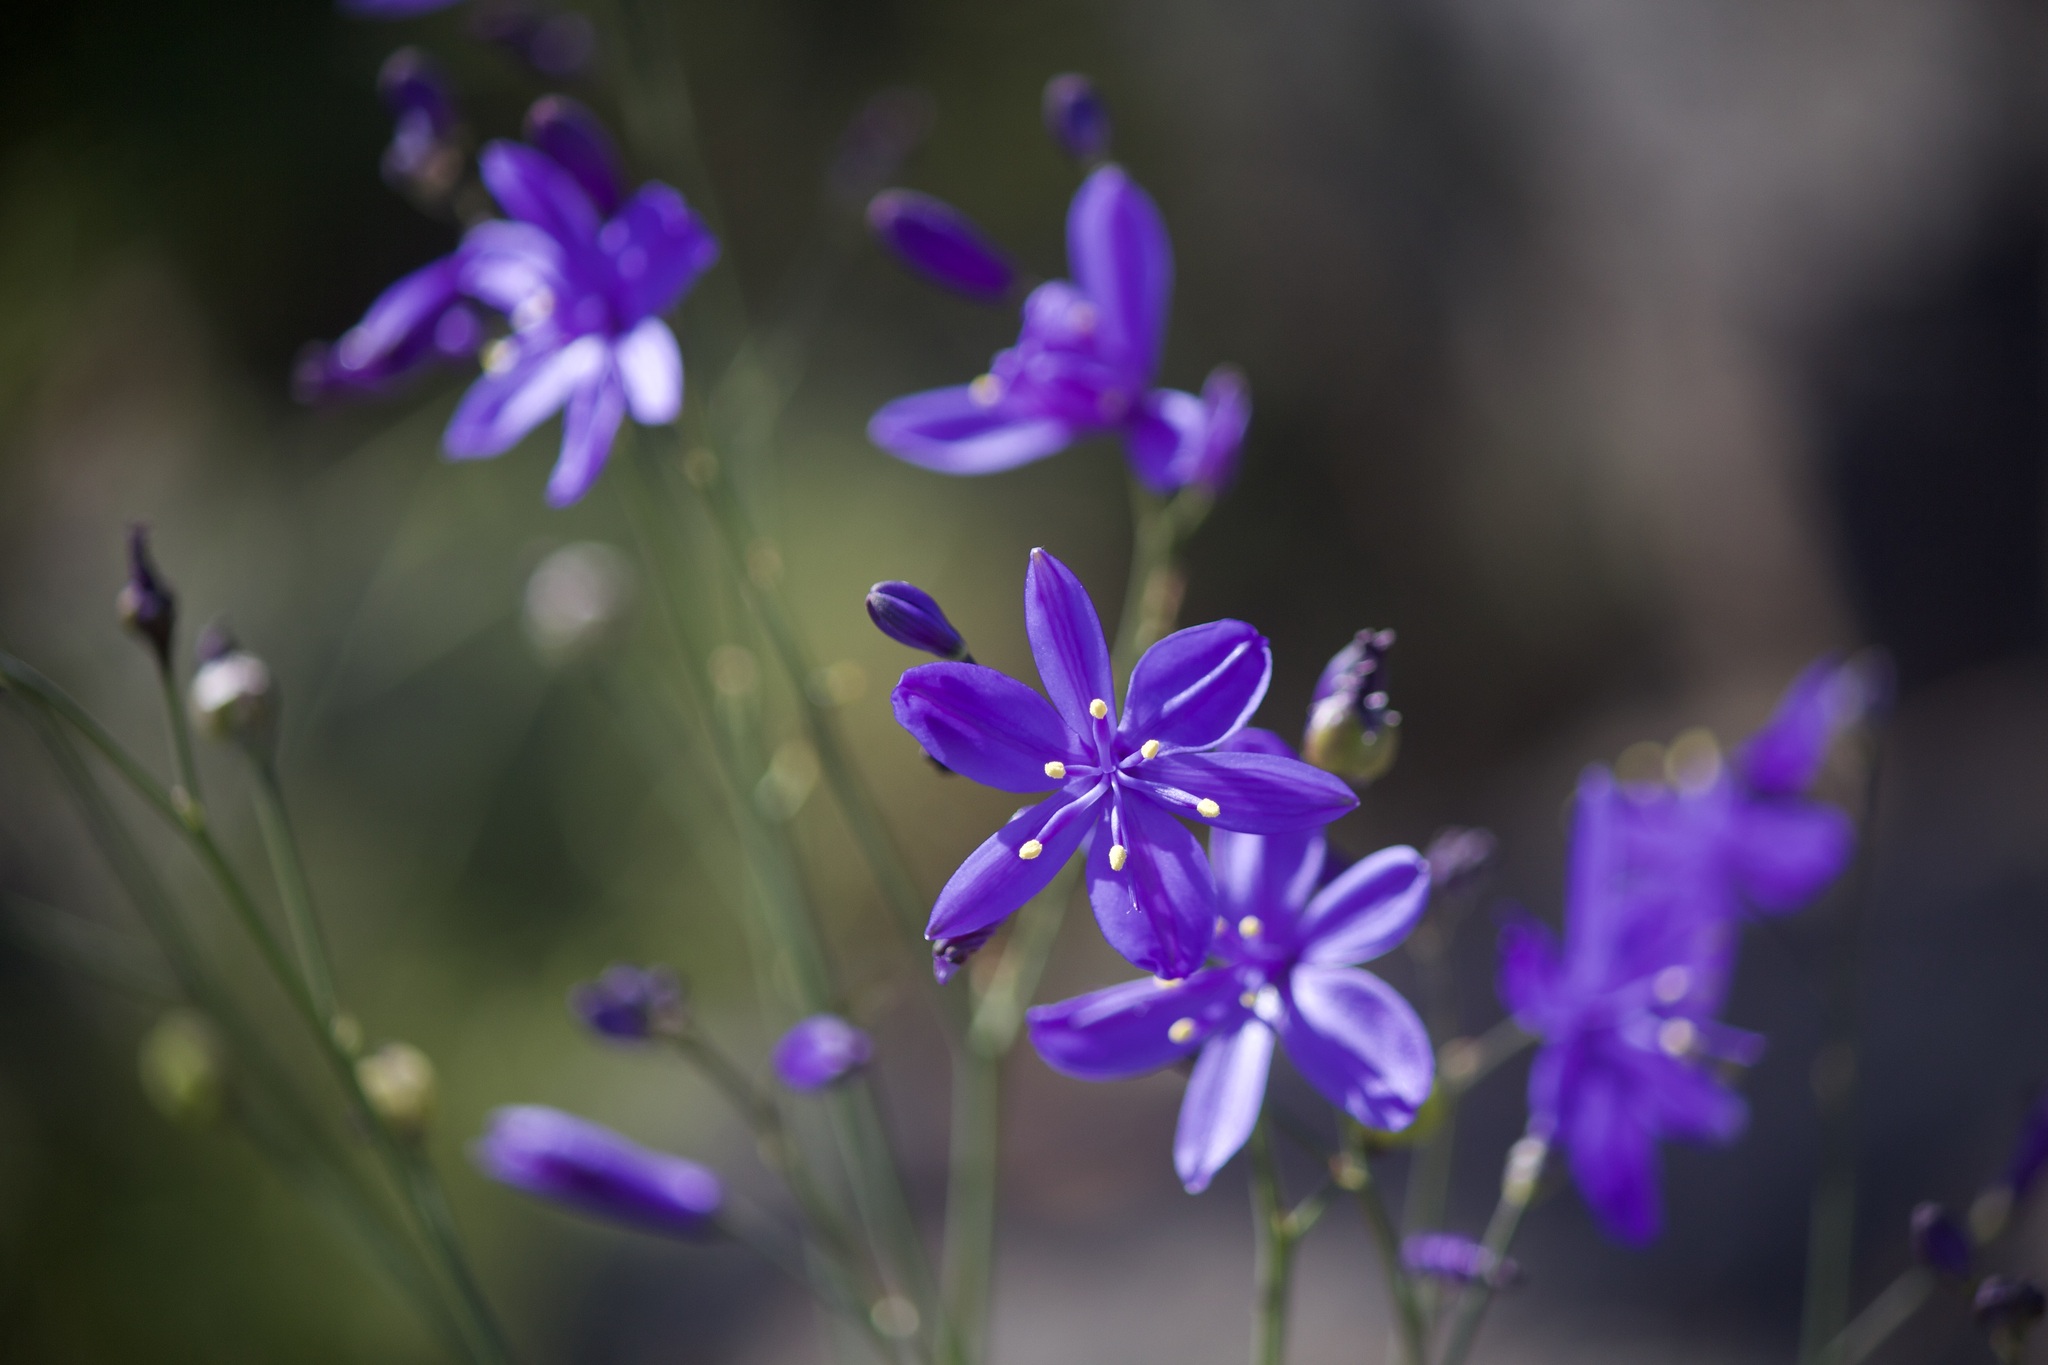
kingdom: Plantae
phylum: Tracheophyta
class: Liliopsida
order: Asparagales
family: Asphodelaceae
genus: Pasithea
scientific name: Pasithea caerulea
